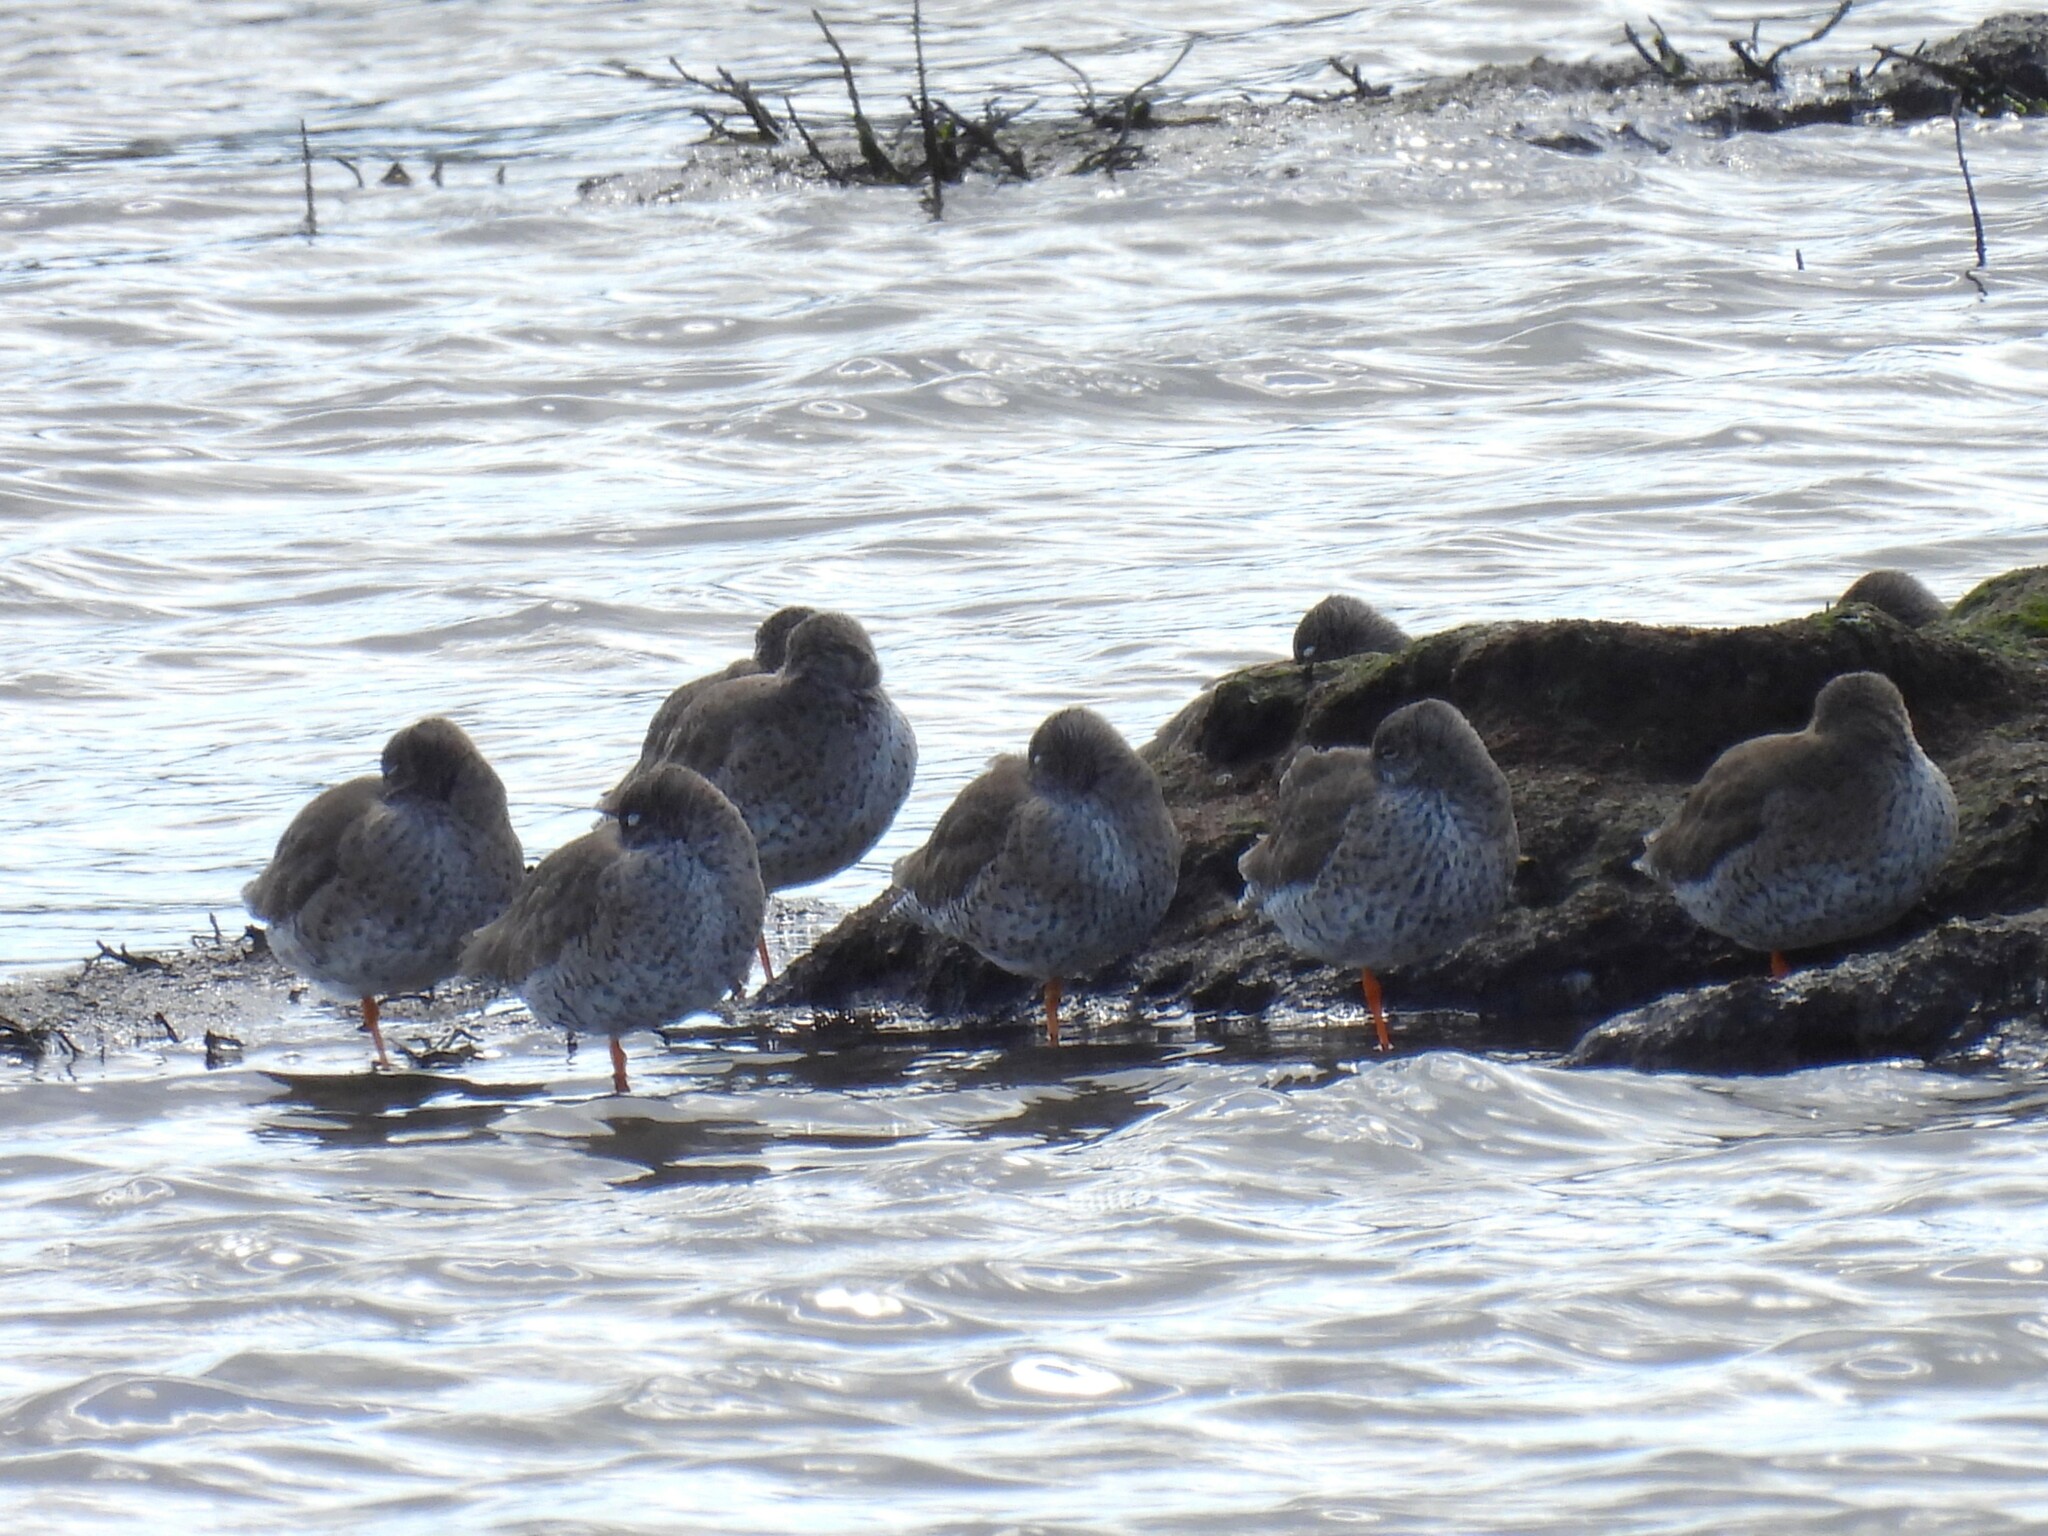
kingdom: Animalia
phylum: Chordata
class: Aves
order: Charadriiformes
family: Scolopacidae
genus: Tringa
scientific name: Tringa totanus
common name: Common redshank
